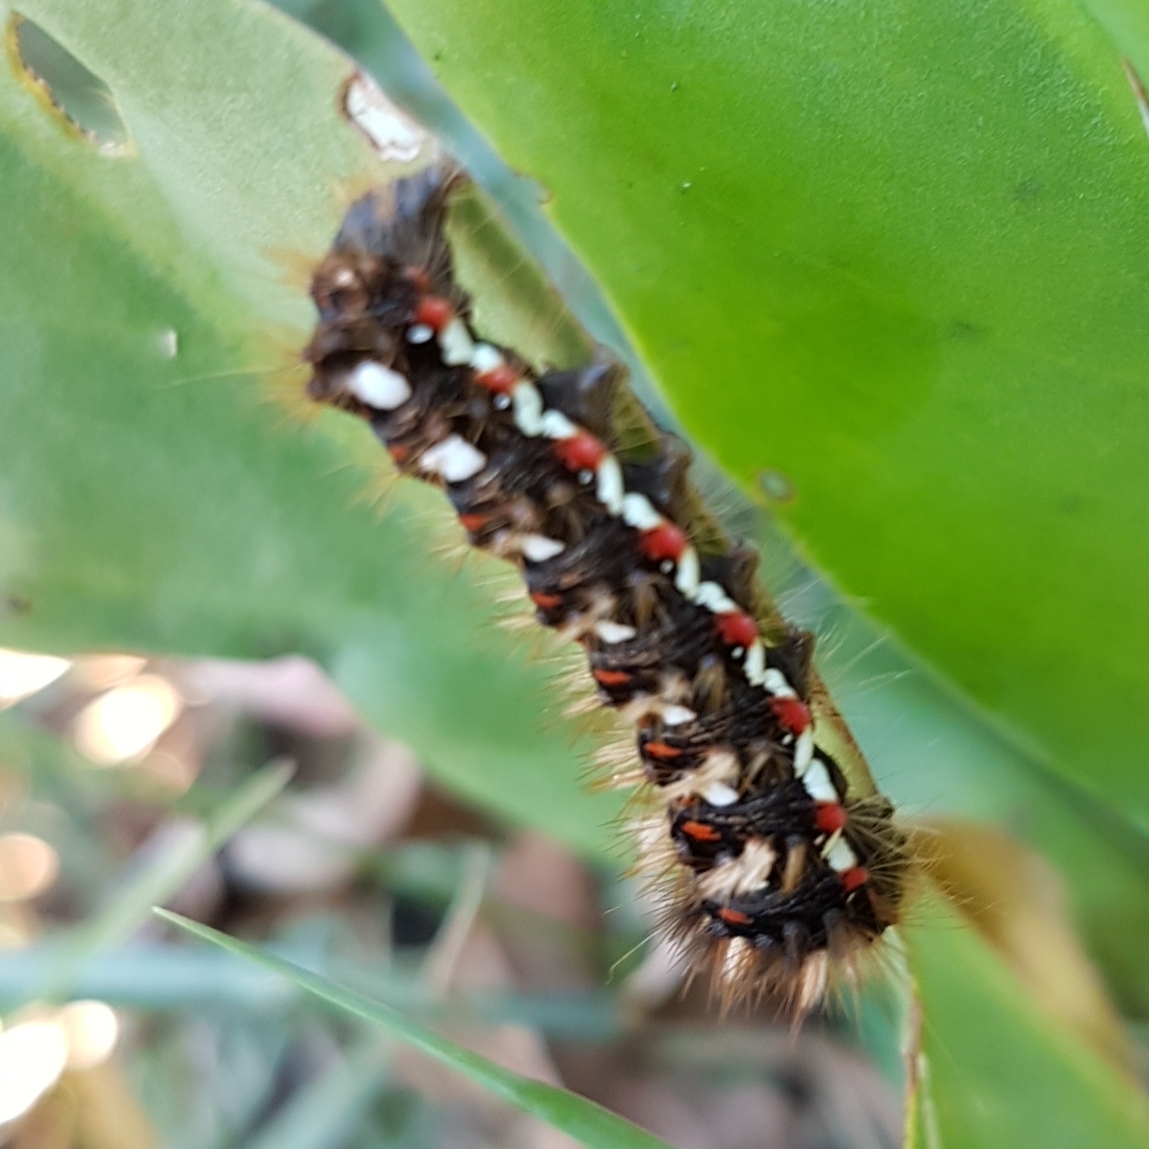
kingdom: Animalia
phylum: Arthropoda
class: Insecta
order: Lepidoptera
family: Noctuidae
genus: Acronicta
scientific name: Acronicta rumicis
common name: Knot grass
